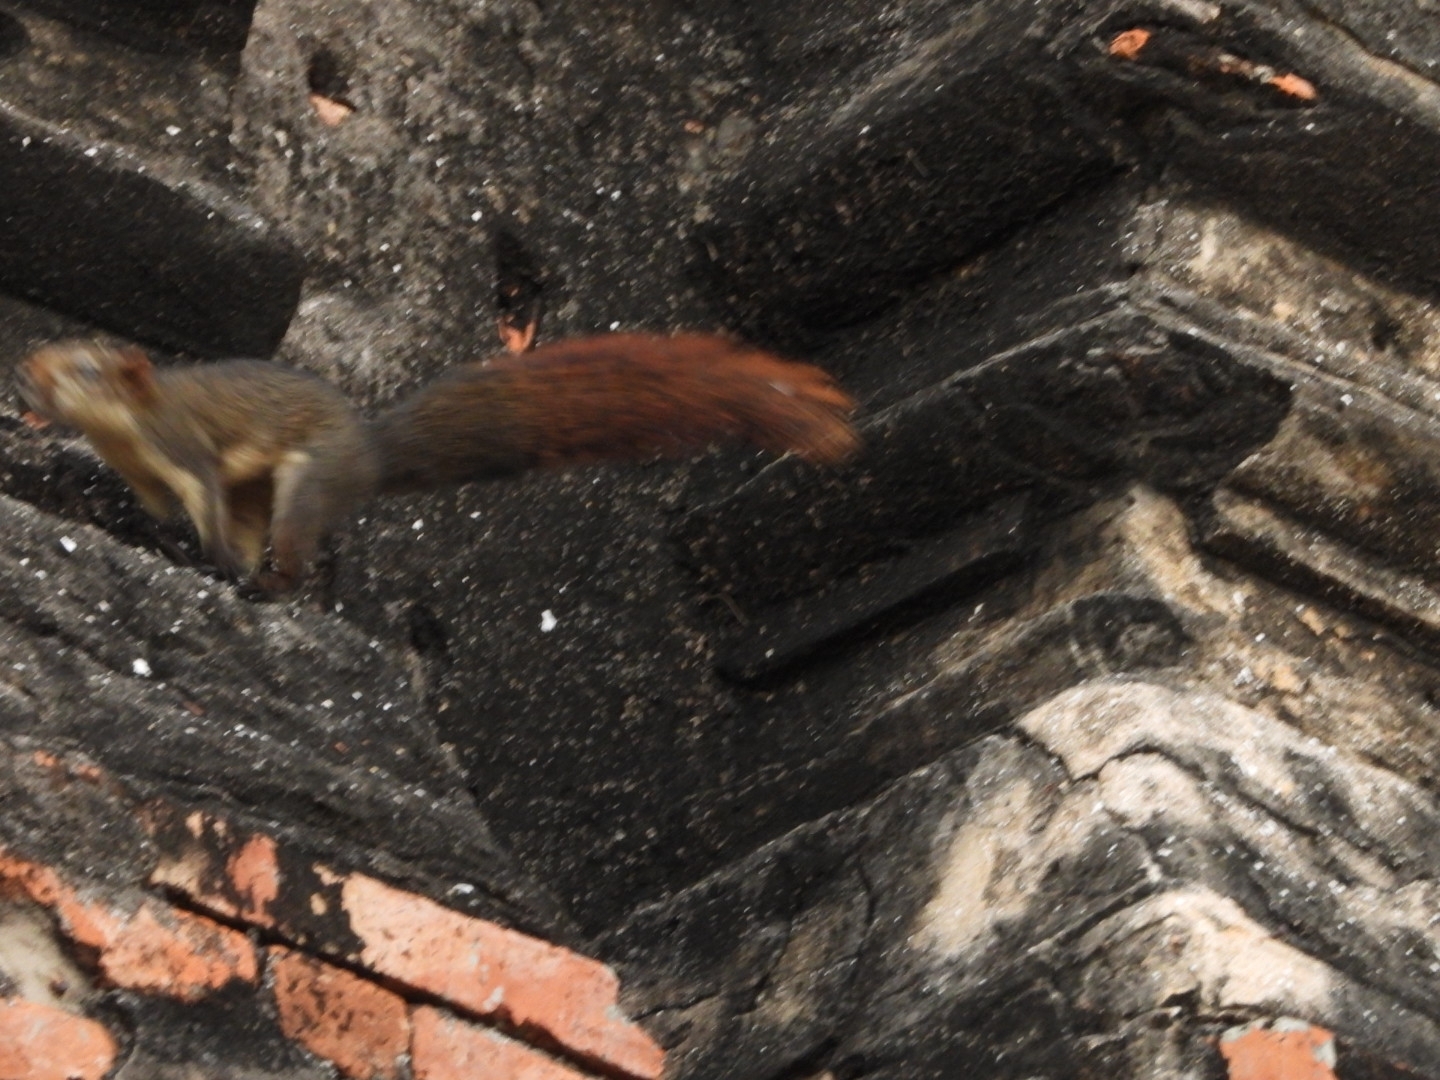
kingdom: Animalia
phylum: Chordata
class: Mammalia
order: Rodentia
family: Sciuridae
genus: Callosciurus
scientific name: Callosciurus finlaysonii
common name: Finlayson's squirrel
